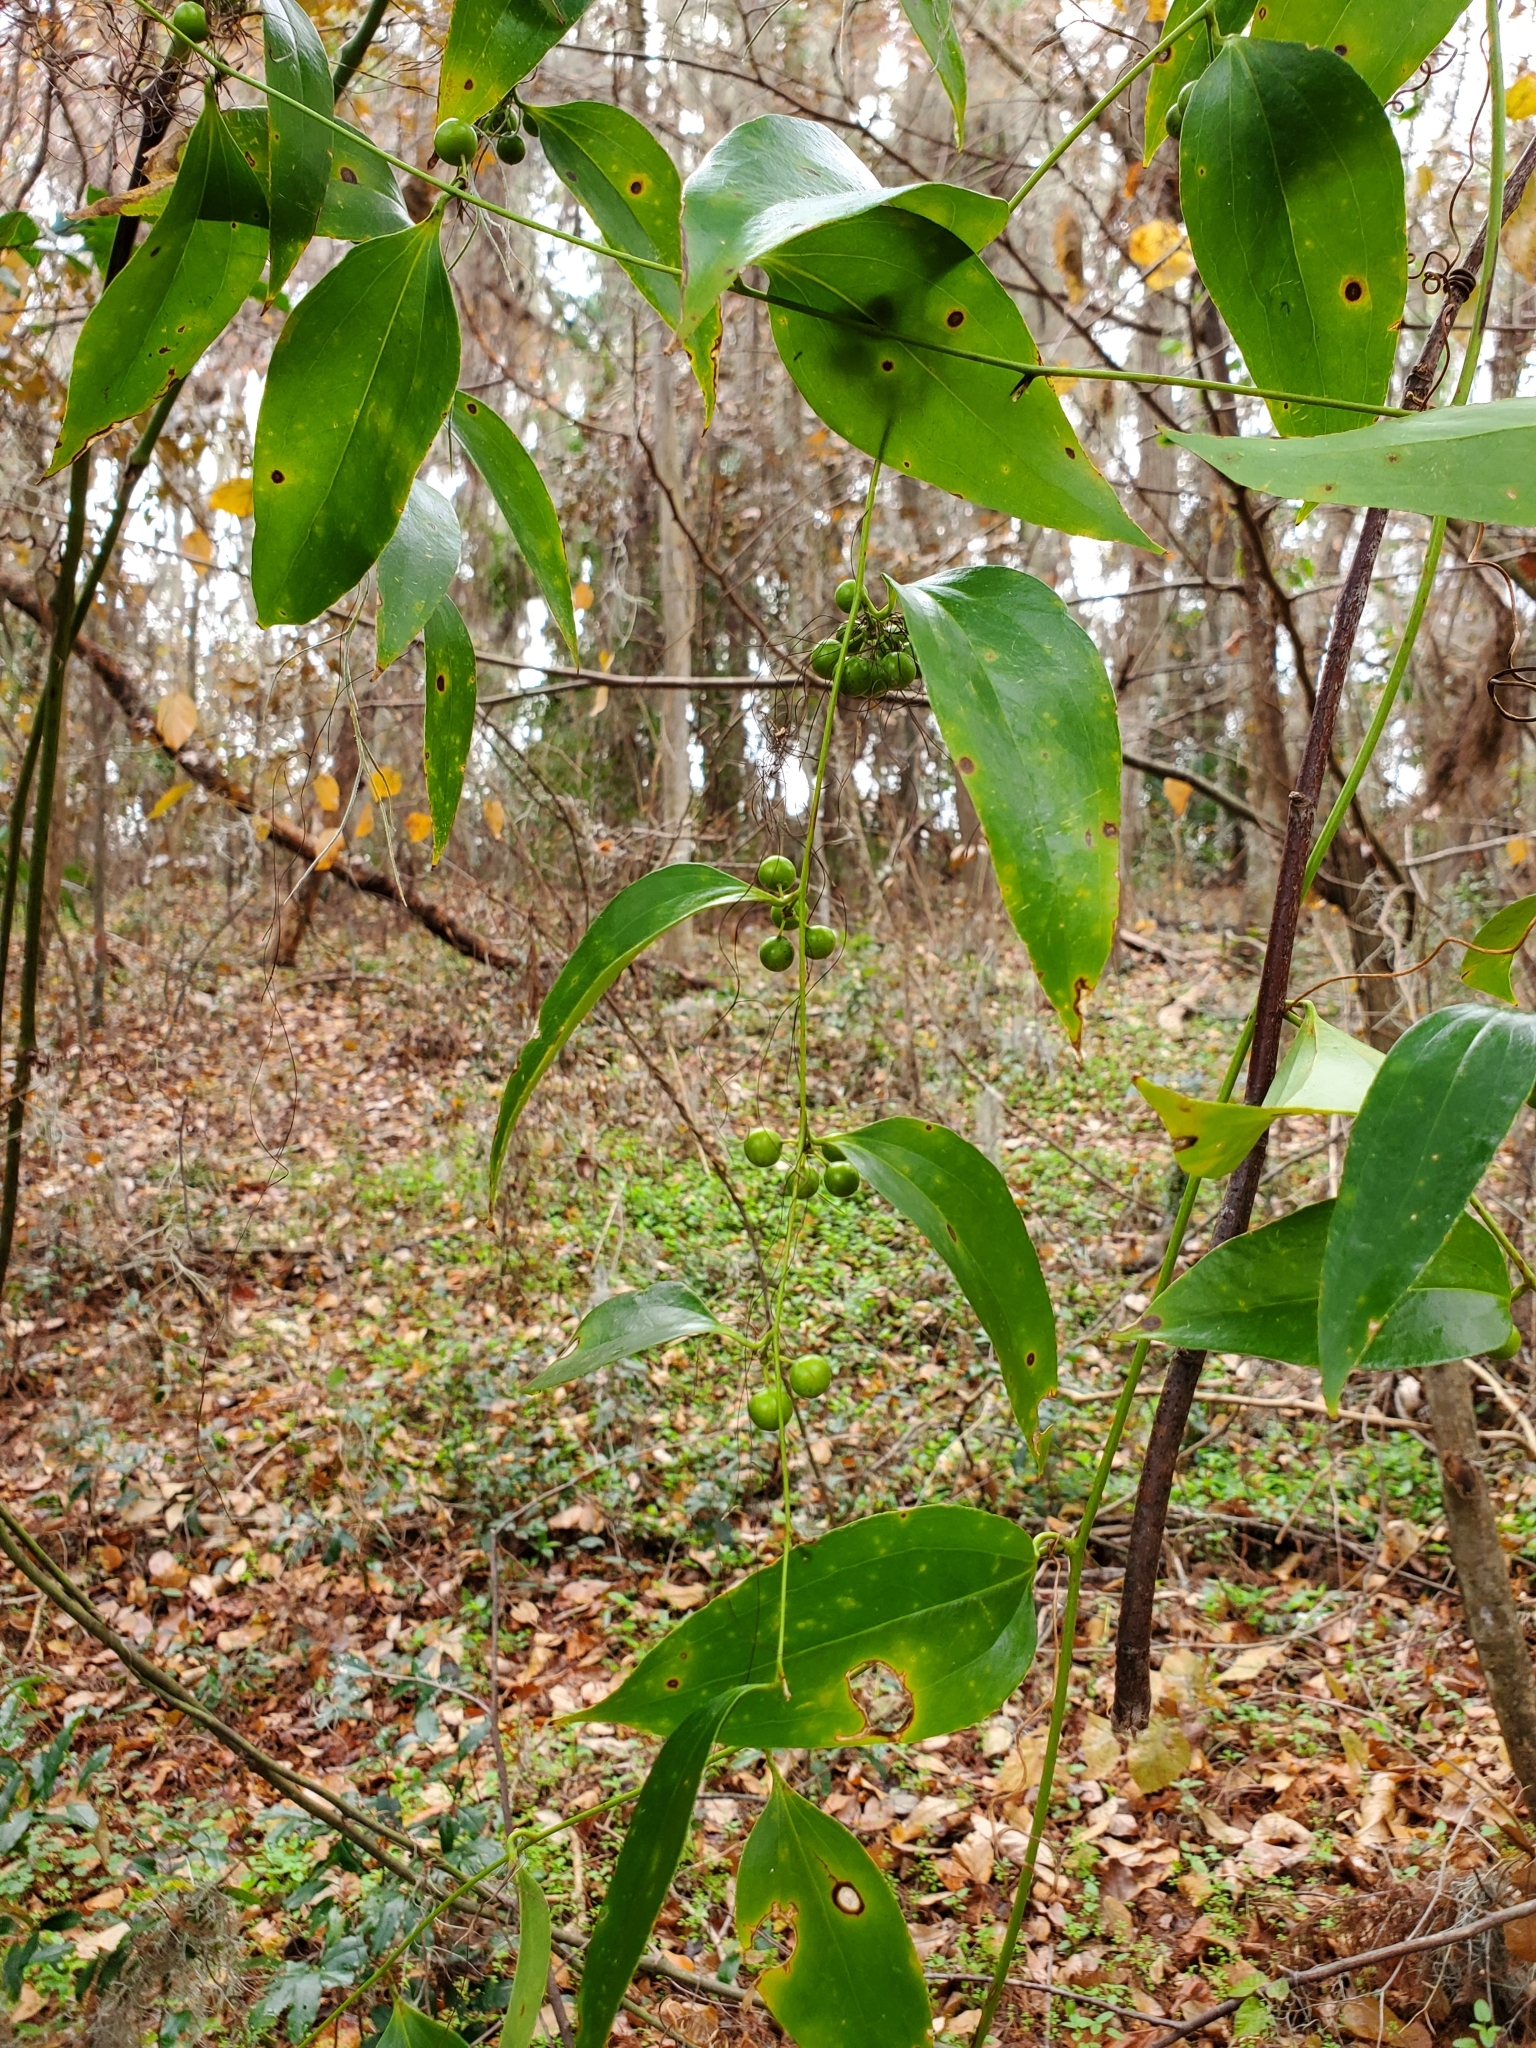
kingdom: Plantae
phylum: Tracheophyta
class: Liliopsida
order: Liliales
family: Smilacaceae
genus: Smilax
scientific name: Smilax maritima
